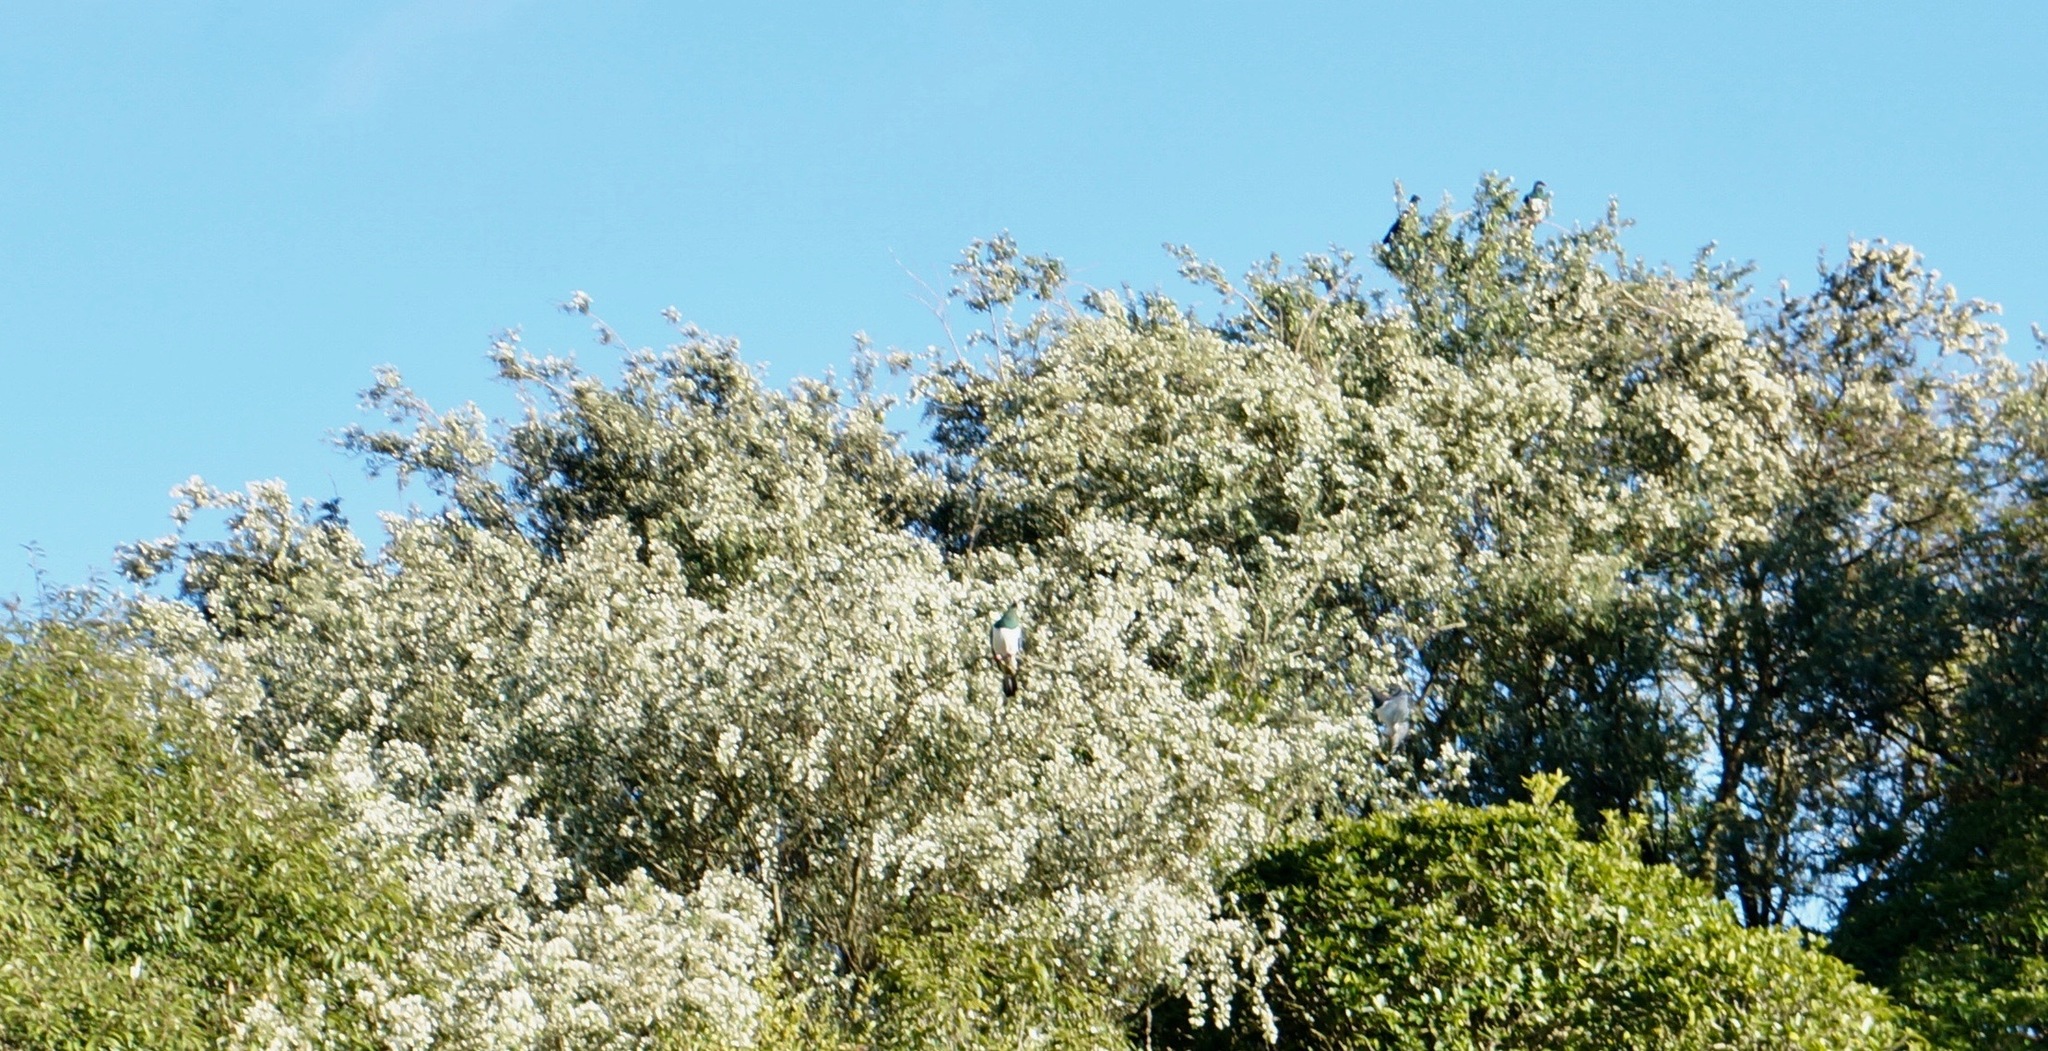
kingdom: Animalia
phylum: Chordata
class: Aves
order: Columbiformes
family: Columbidae
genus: Hemiphaga
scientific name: Hemiphaga novaeseelandiae
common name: New zealand pigeon
